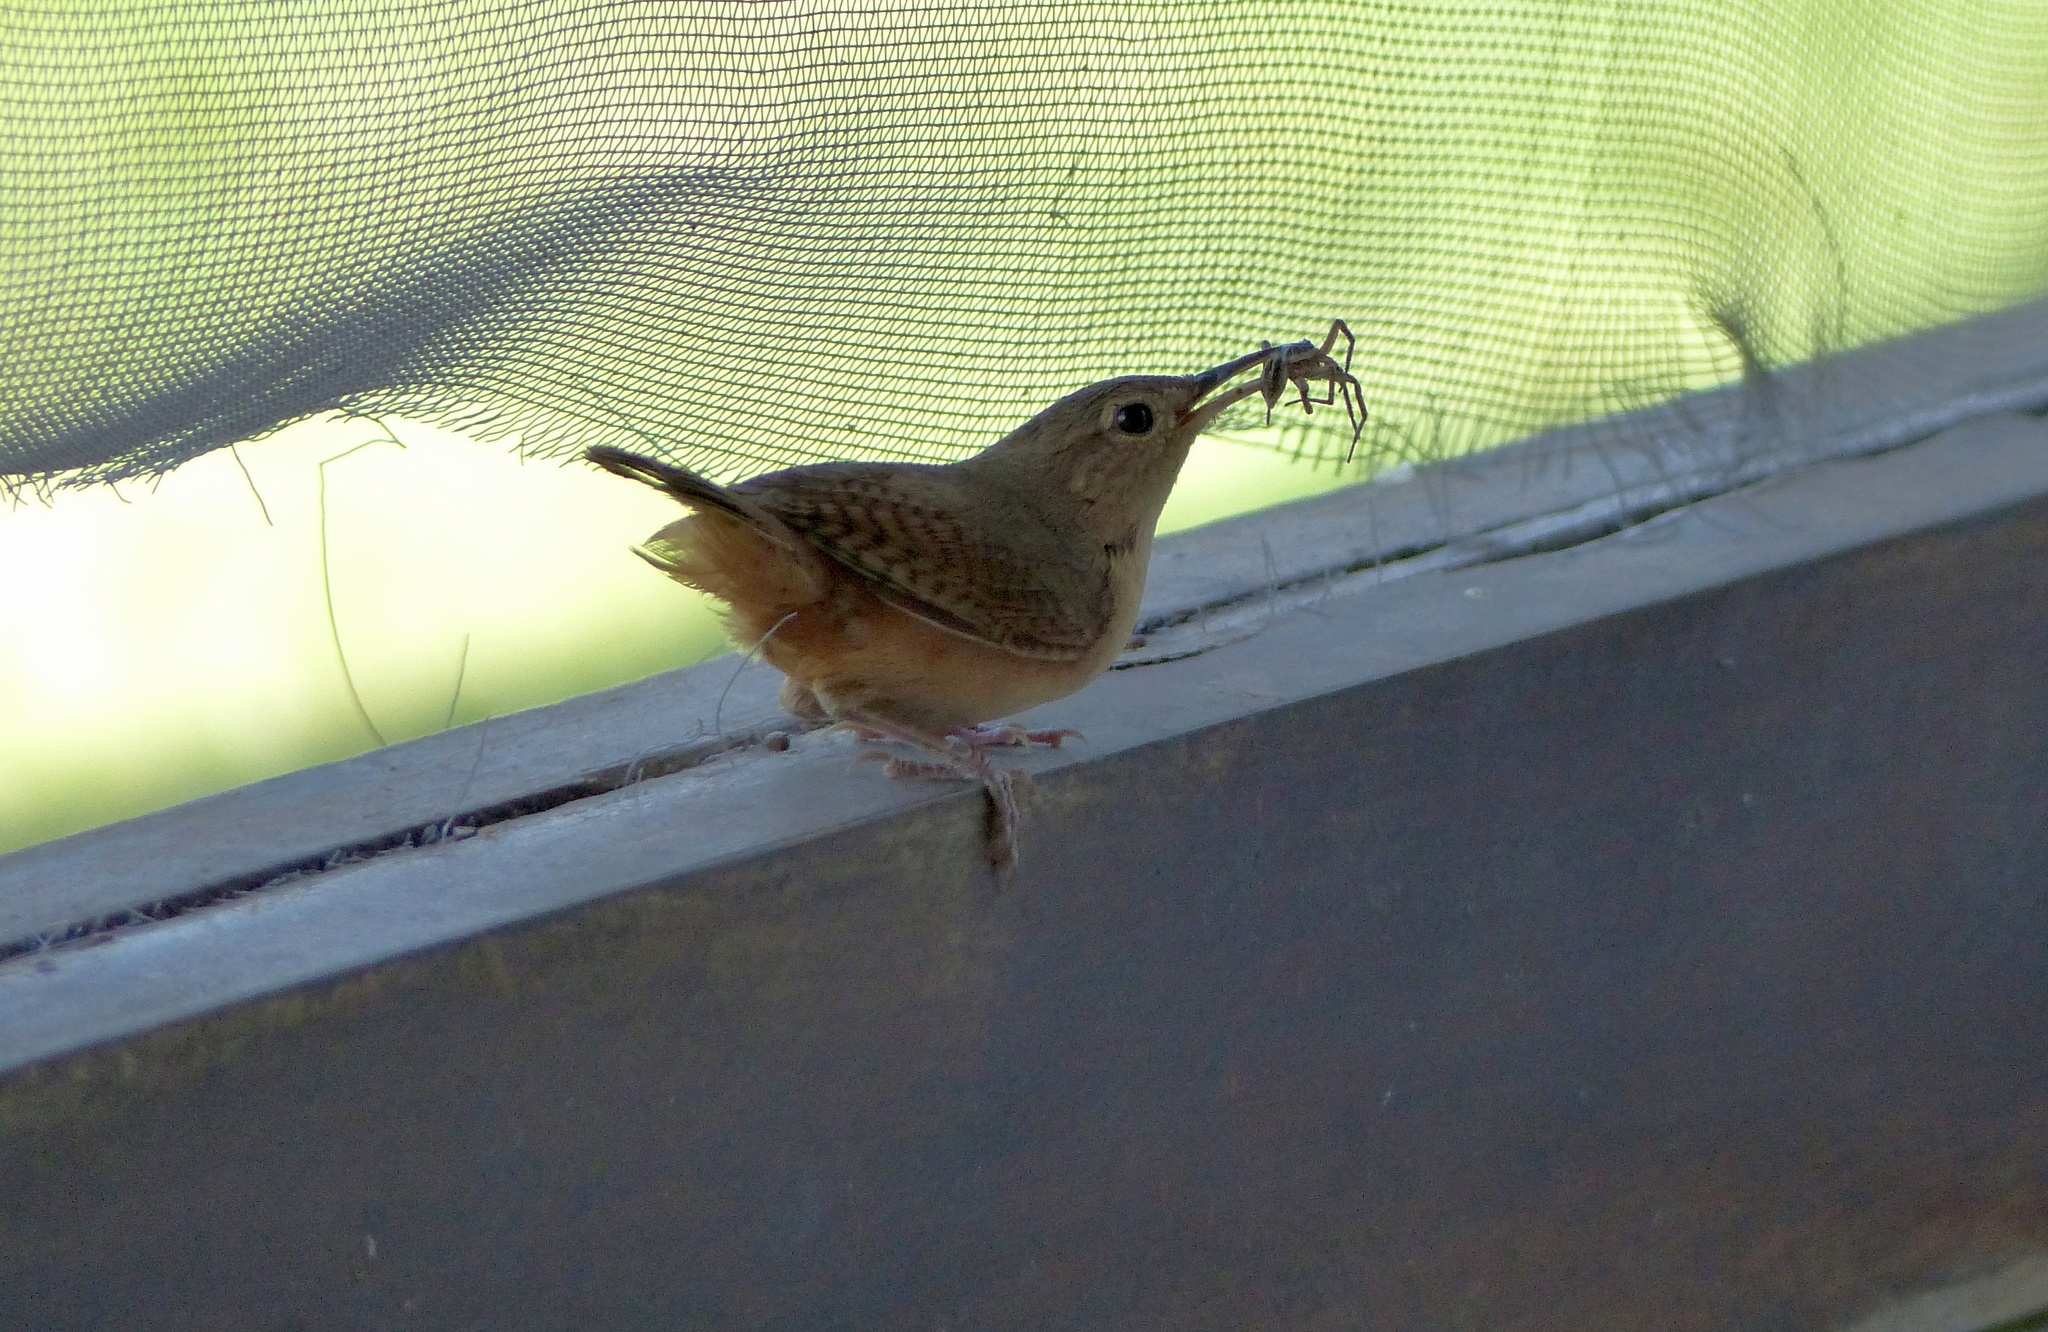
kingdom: Animalia
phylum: Chordata
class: Aves
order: Passeriformes
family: Troglodytidae
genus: Troglodytes
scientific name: Troglodytes aedon
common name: House wren
